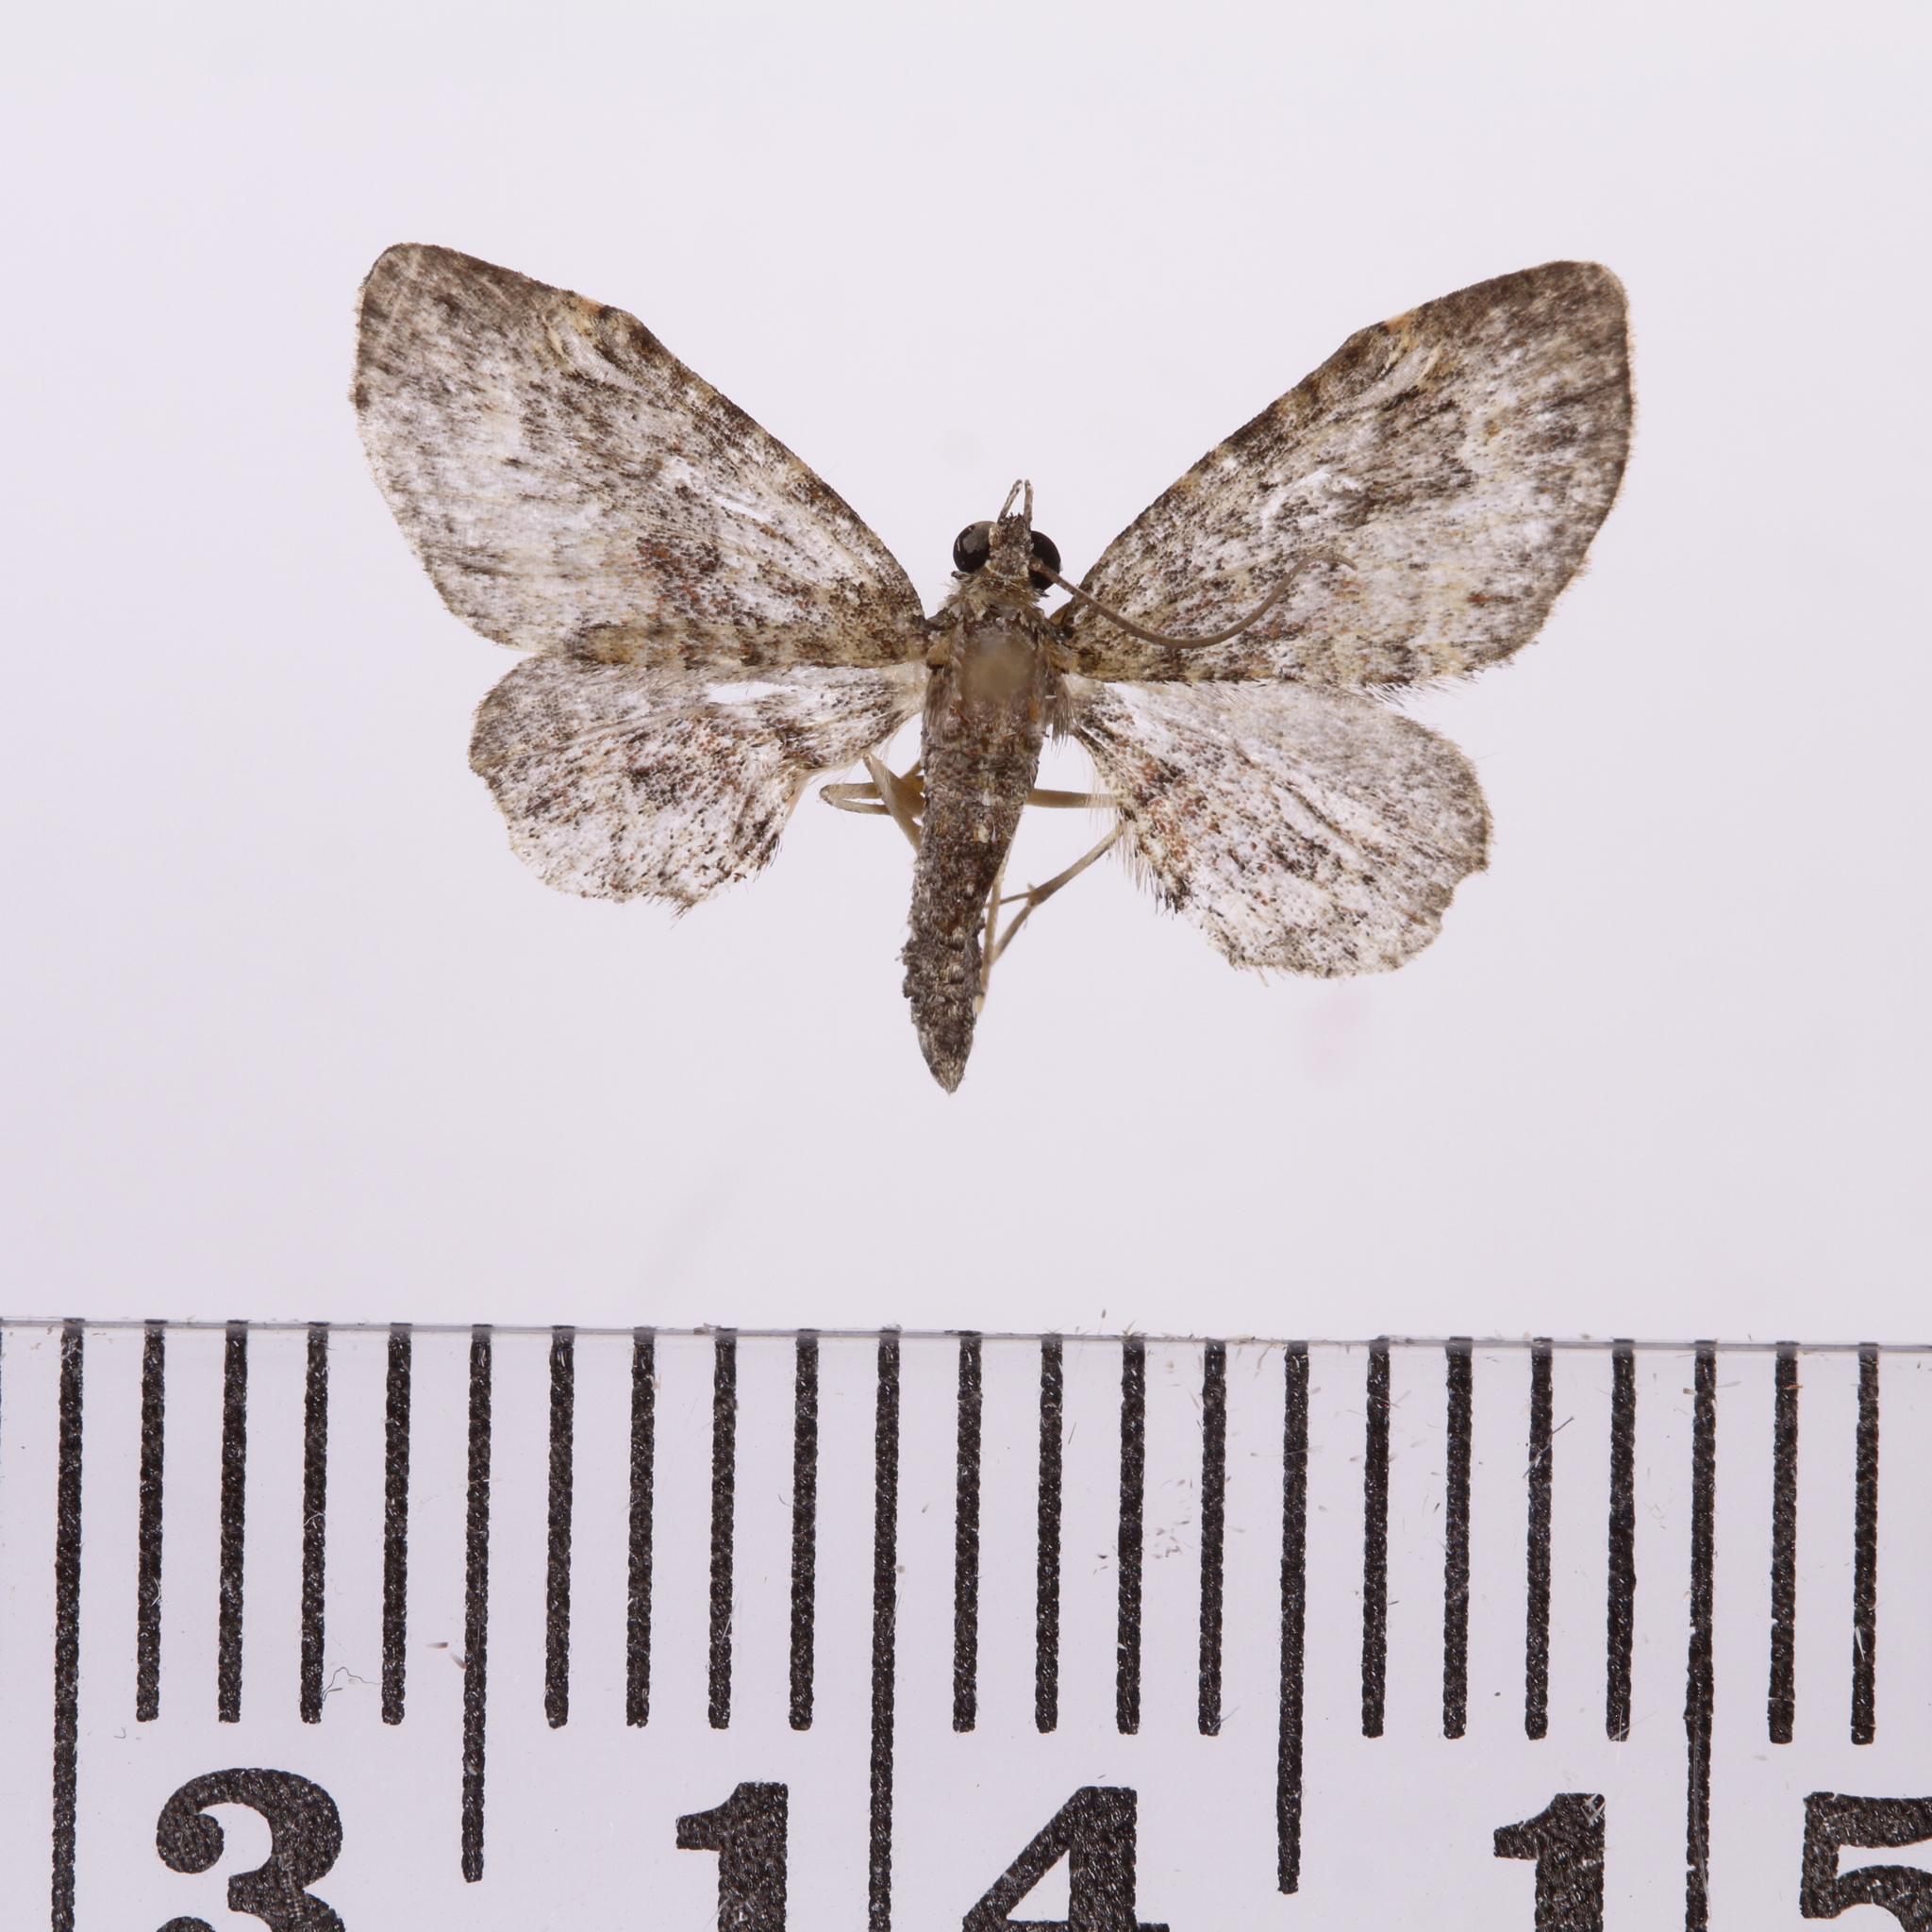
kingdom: Animalia
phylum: Arthropoda
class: Insecta
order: Lepidoptera
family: Geometridae
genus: Pasiphilodes
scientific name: Pasiphilodes testulata
